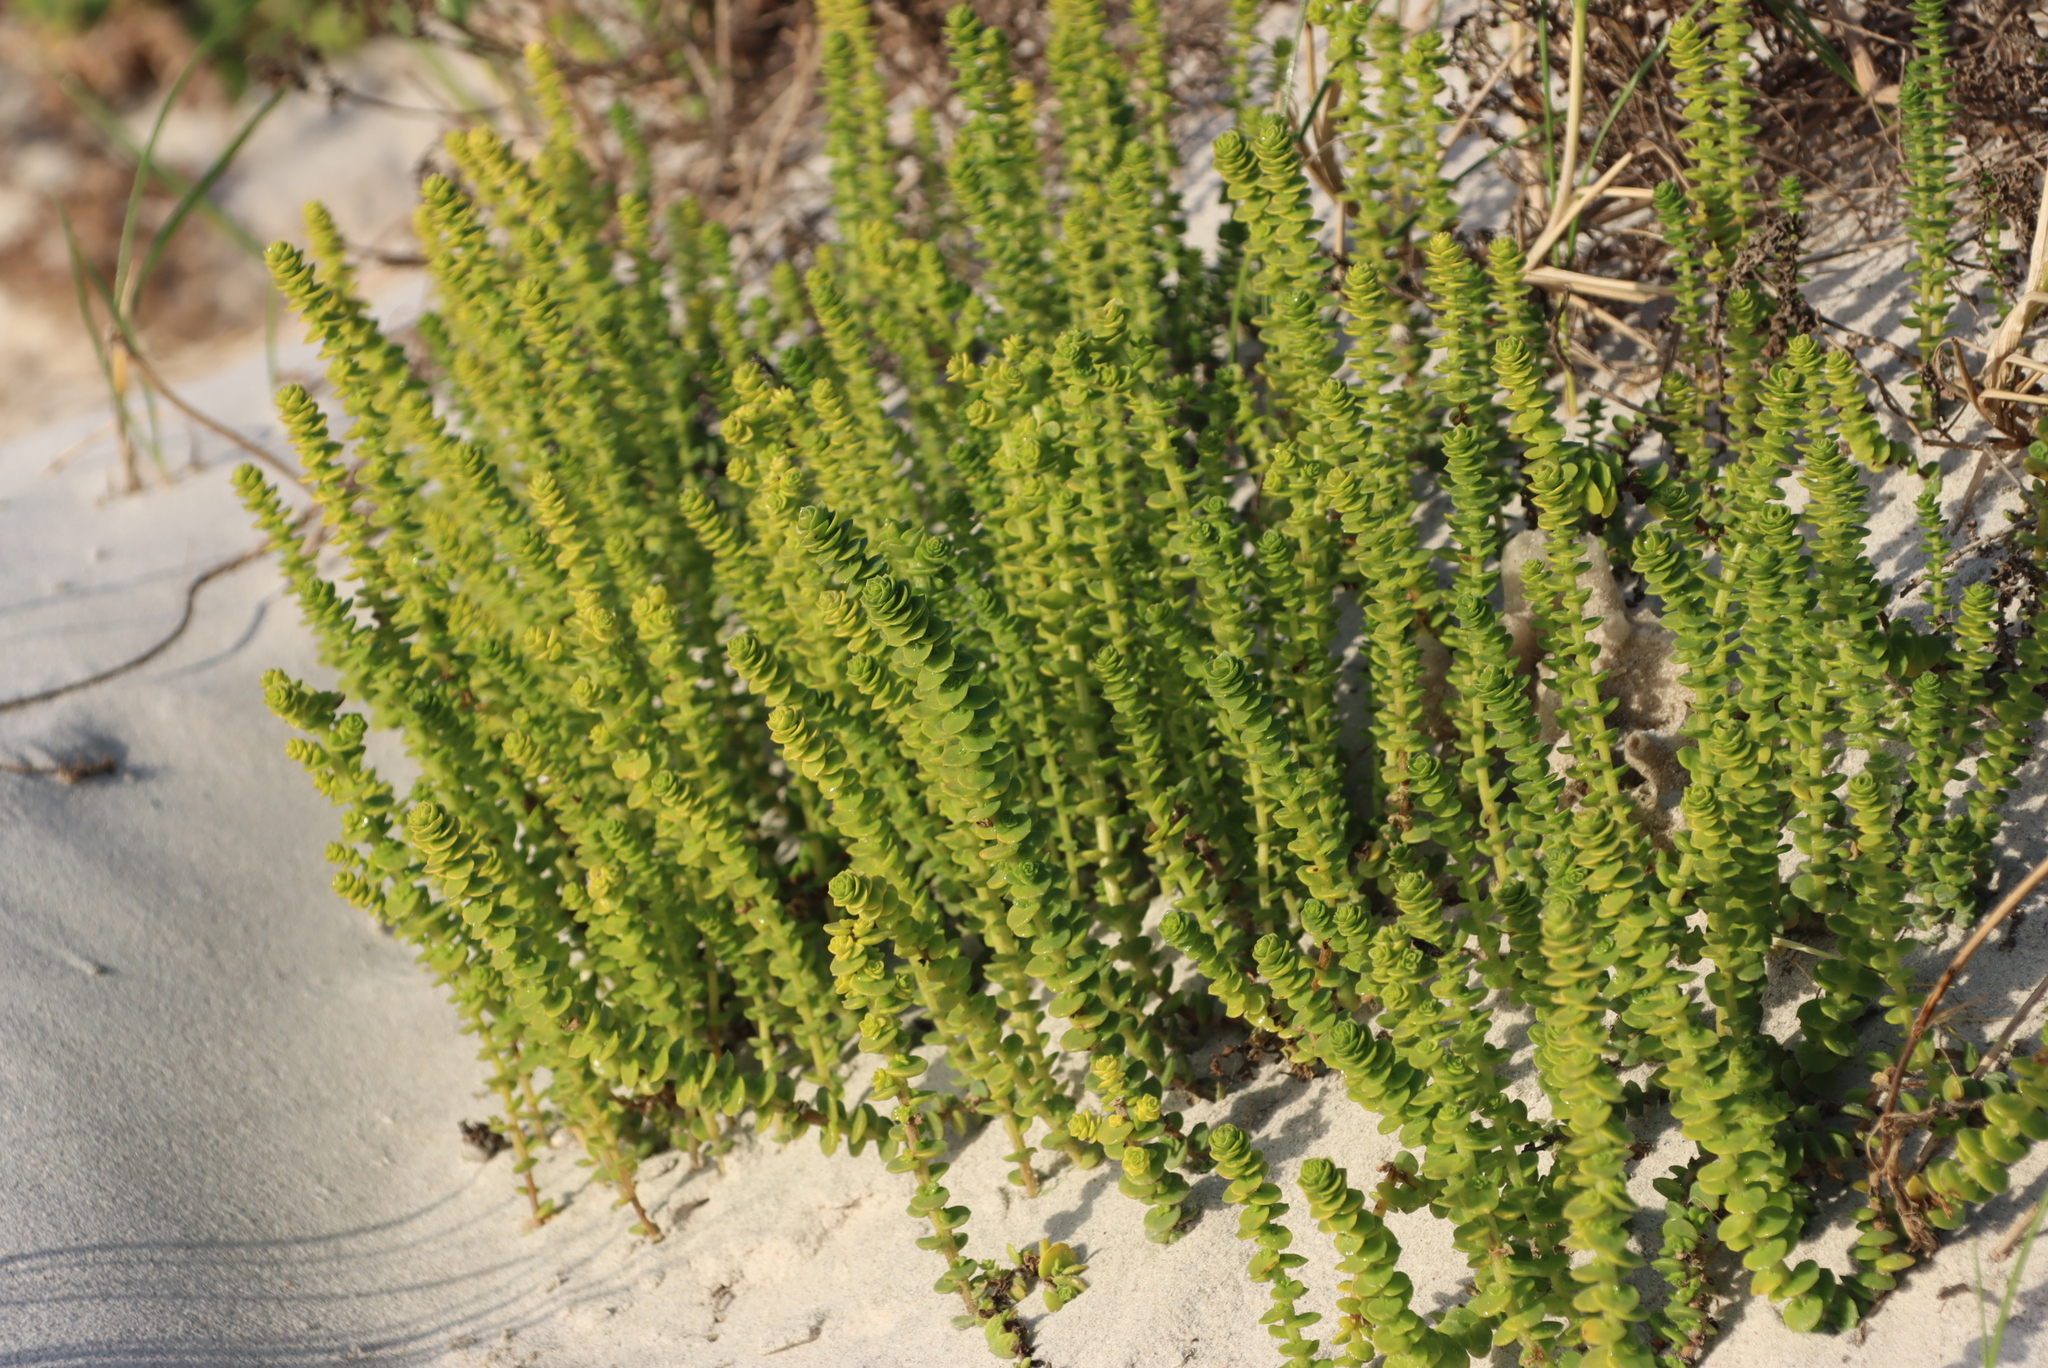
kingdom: Plantae
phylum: Tracheophyta
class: Magnoliopsida
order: Fagales
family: Myricaceae
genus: Morella
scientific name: Morella cordifolia
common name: Waxberry
